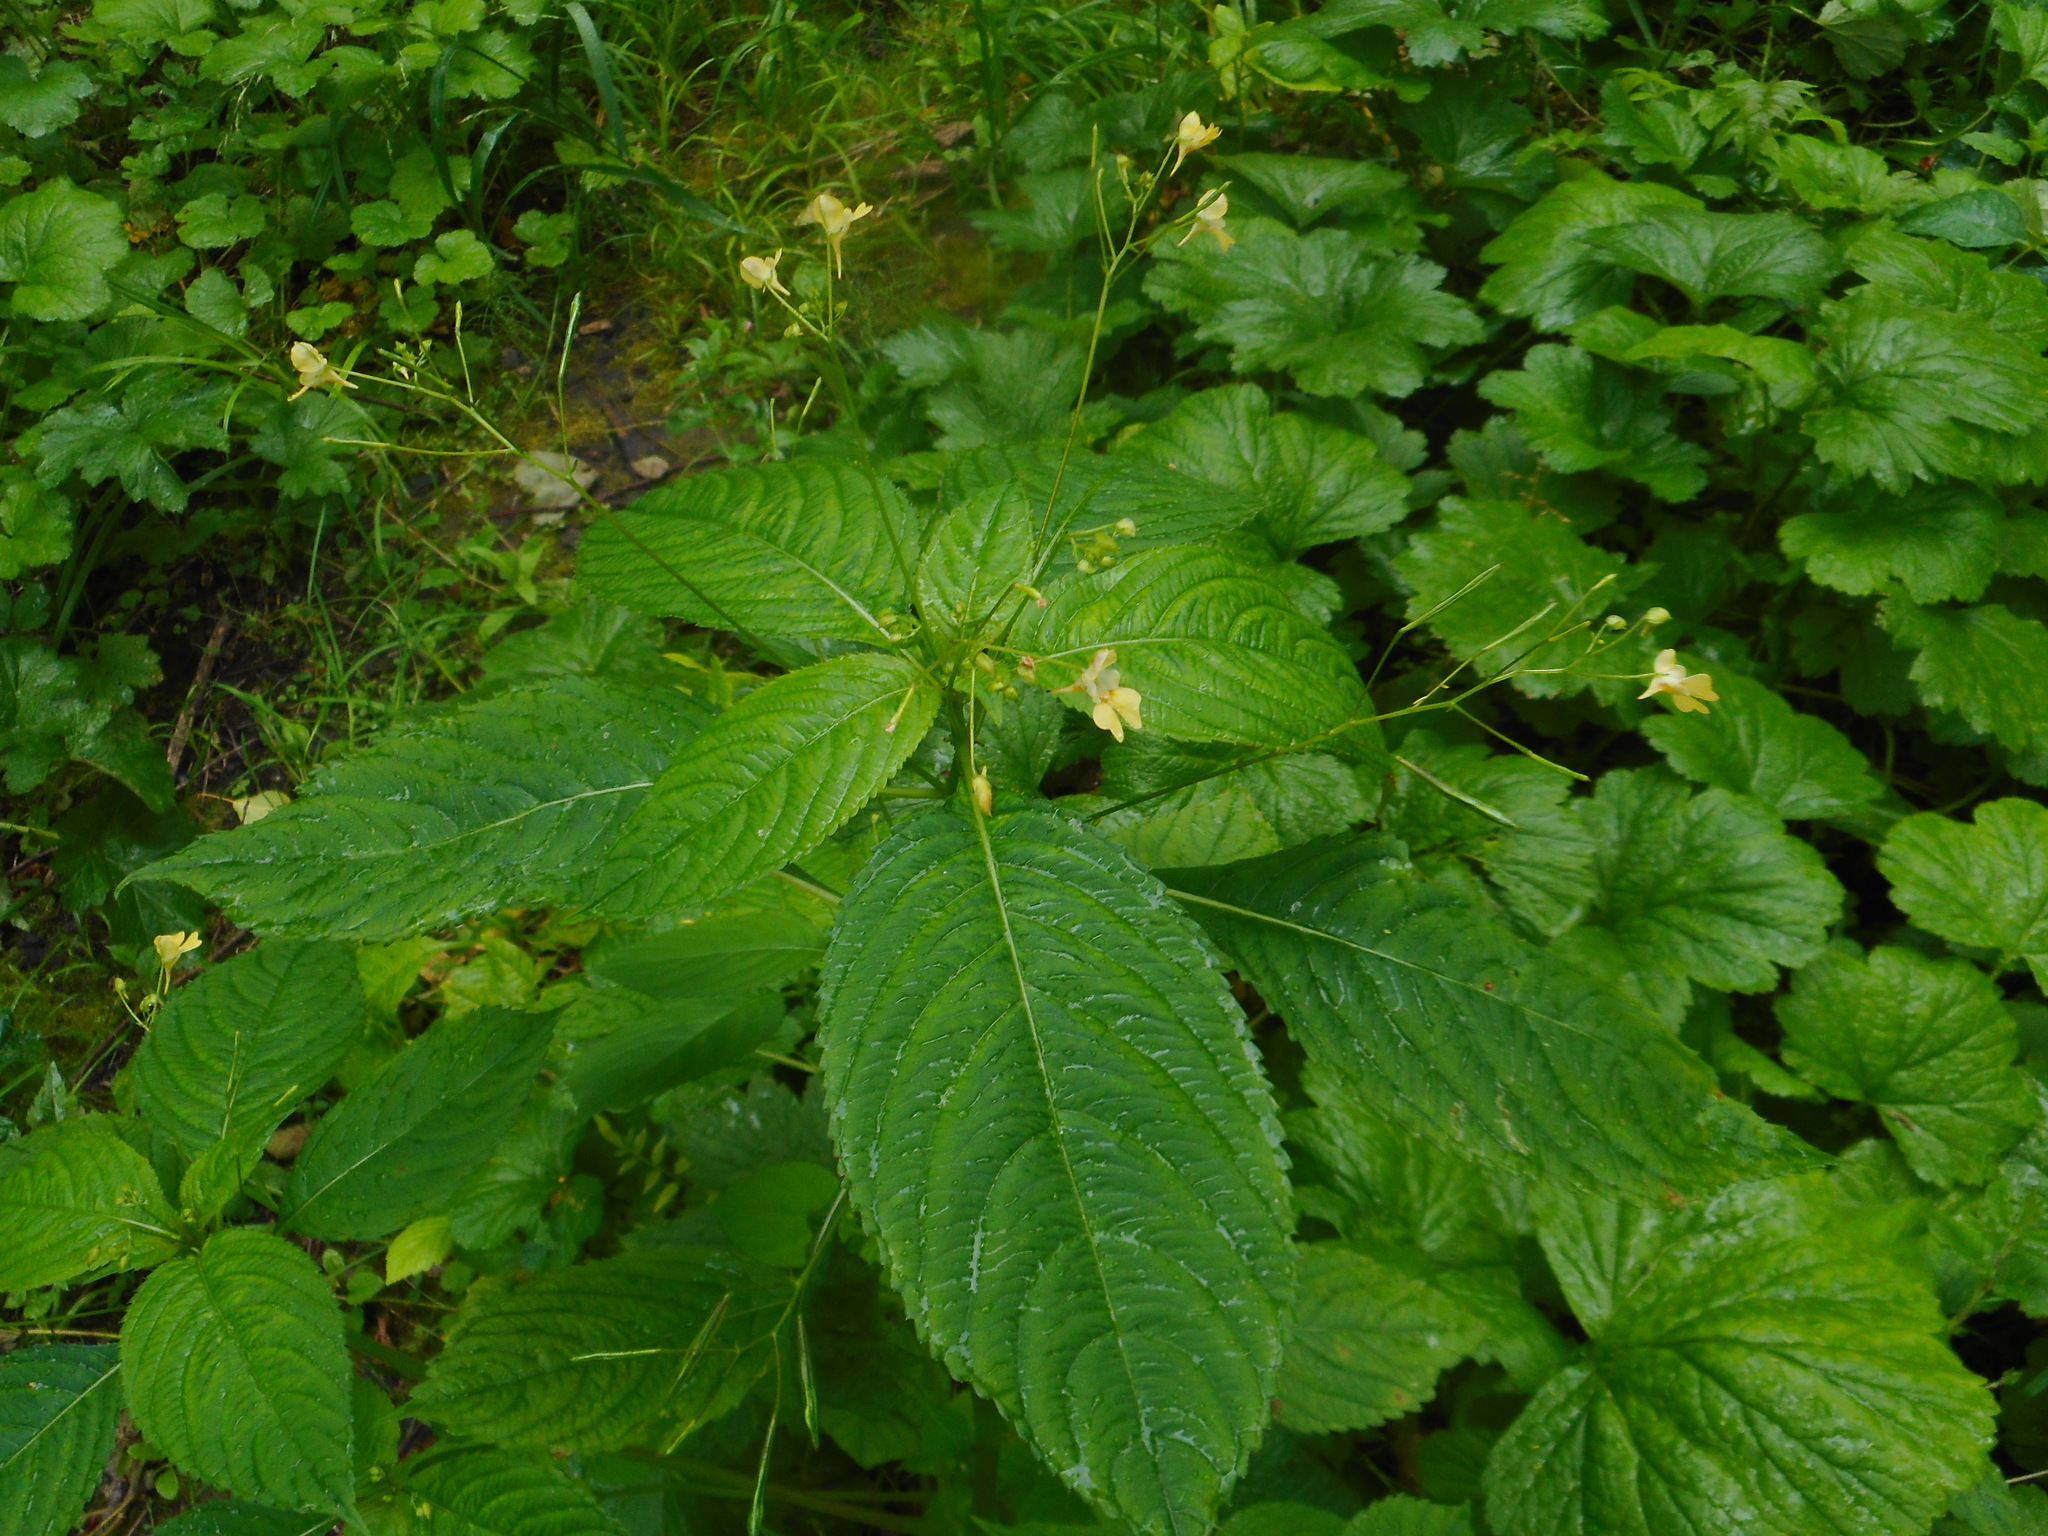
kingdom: Plantae
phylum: Tracheophyta
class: Magnoliopsida
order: Ericales
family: Balsaminaceae
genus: Impatiens
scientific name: Impatiens parviflora
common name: Small balsam
